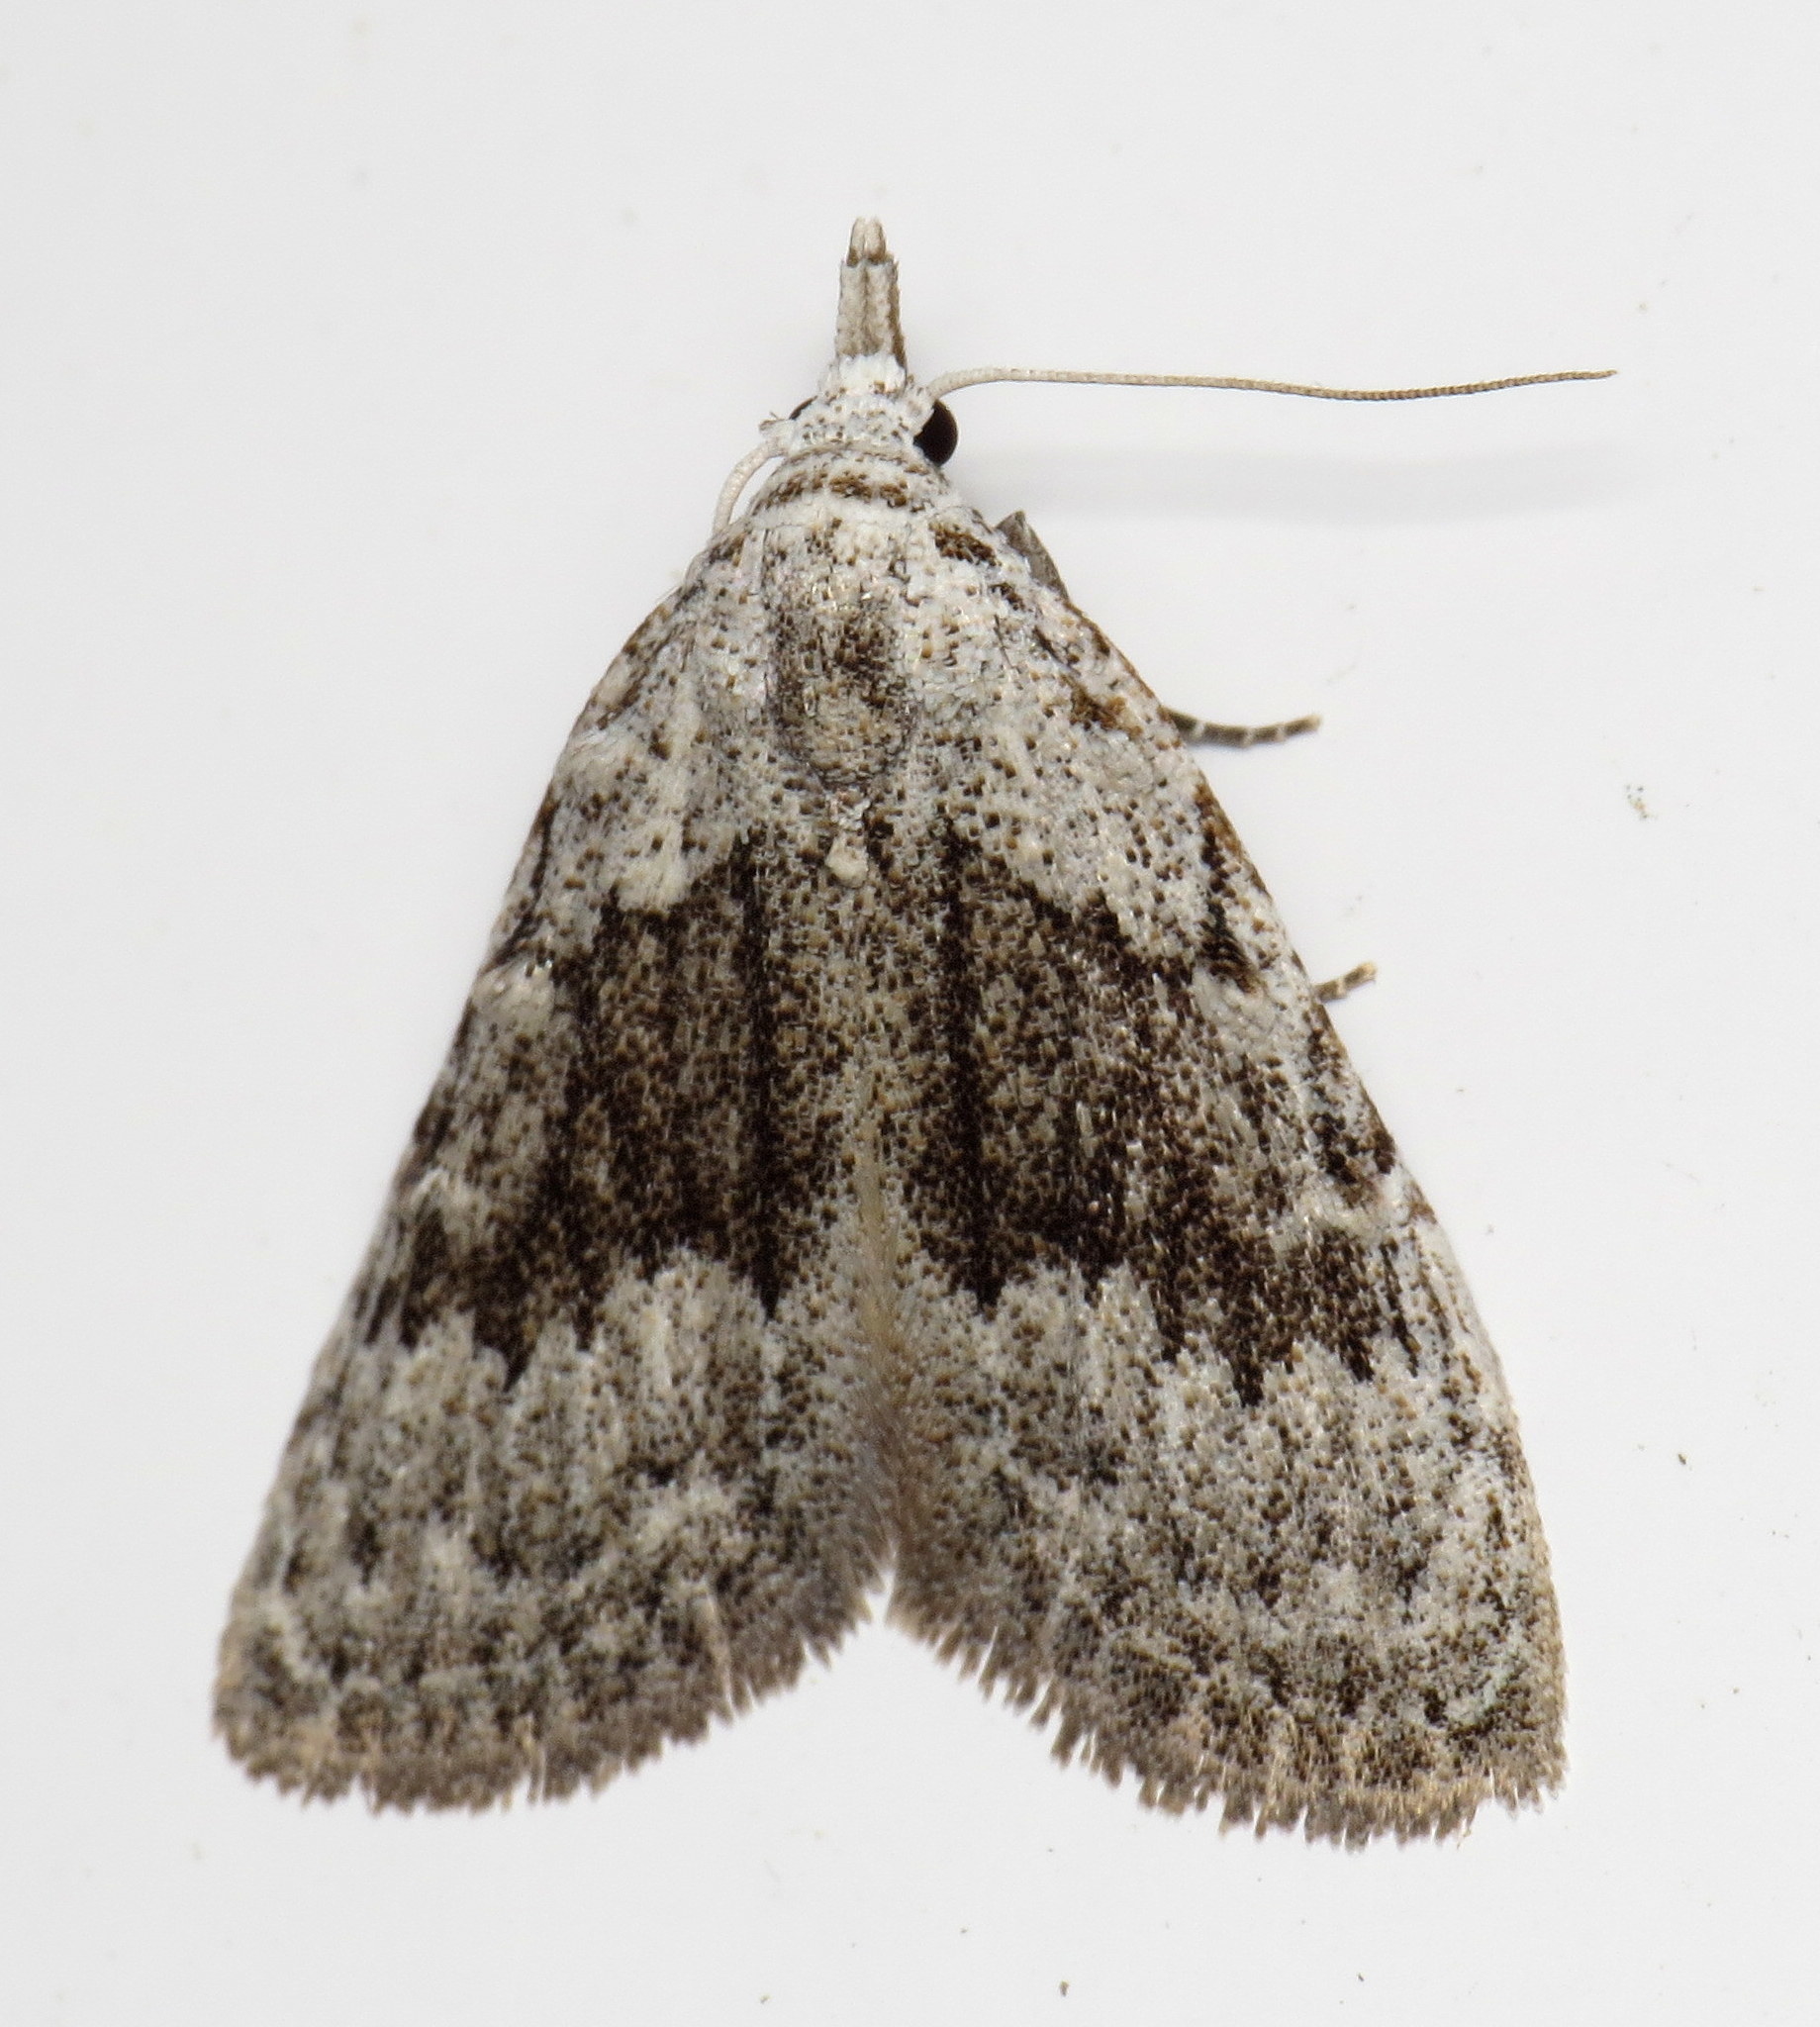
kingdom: Animalia
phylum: Arthropoda
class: Insecta
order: Lepidoptera
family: Nolidae
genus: Nola
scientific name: Nola clethrae
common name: Sweet pepperbush nola moth
